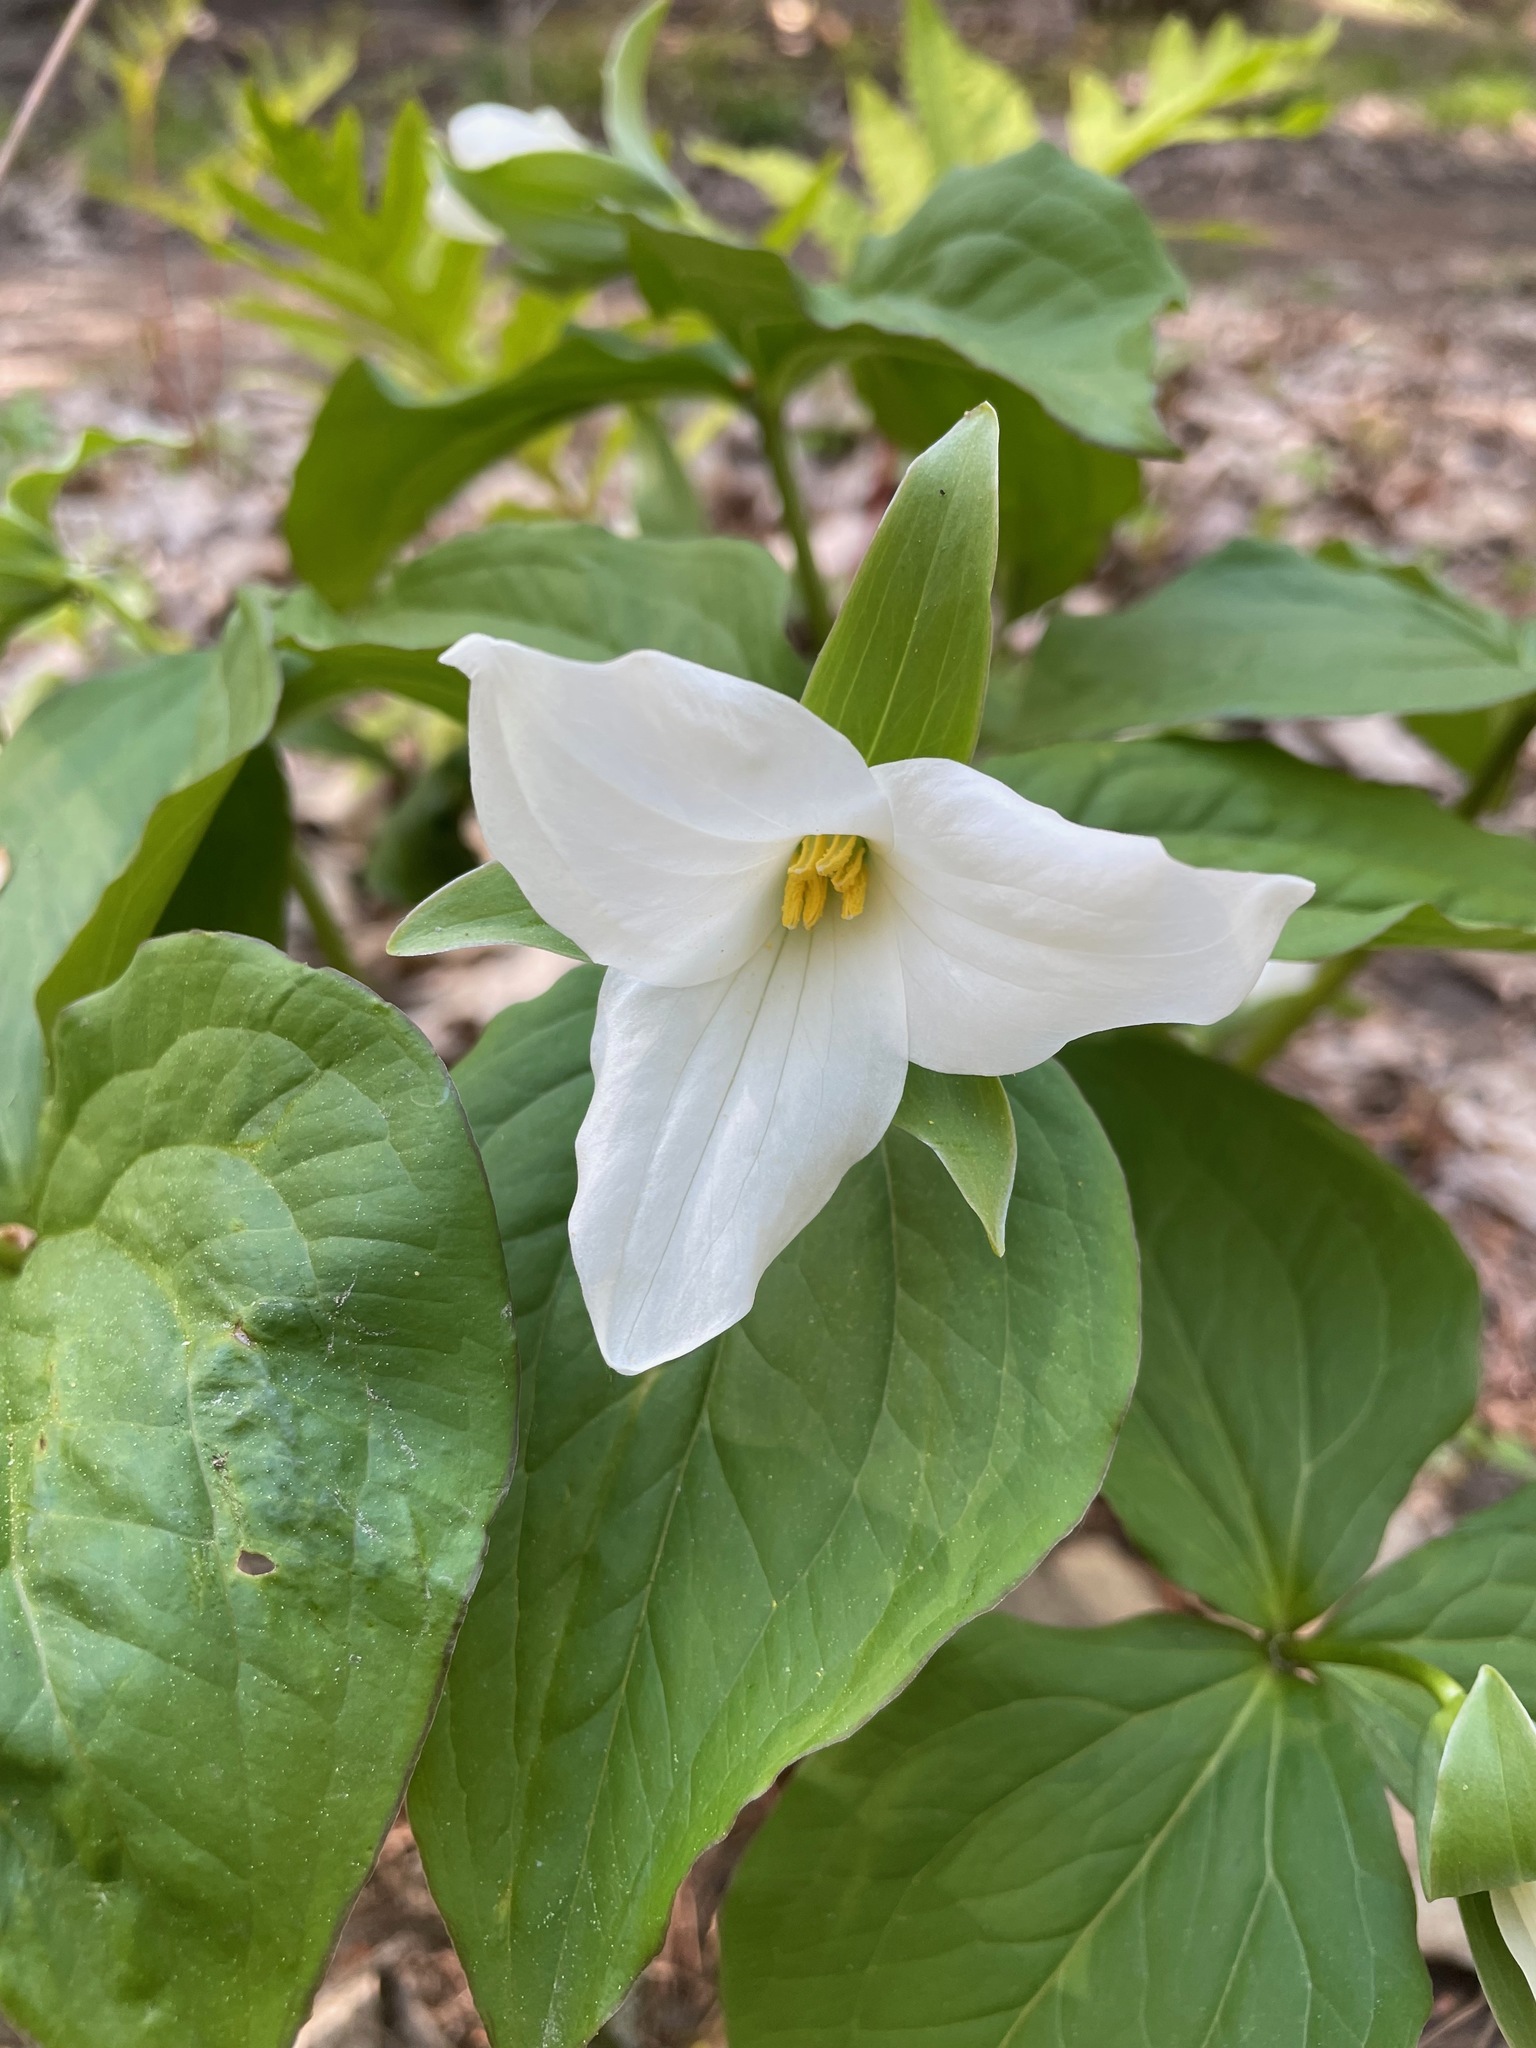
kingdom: Plantae
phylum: Tracheophyta
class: Liliopsida
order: Liliales
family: Melanthiaceae
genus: Trillium
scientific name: Trillium grandiflorum
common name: Great white trillium
